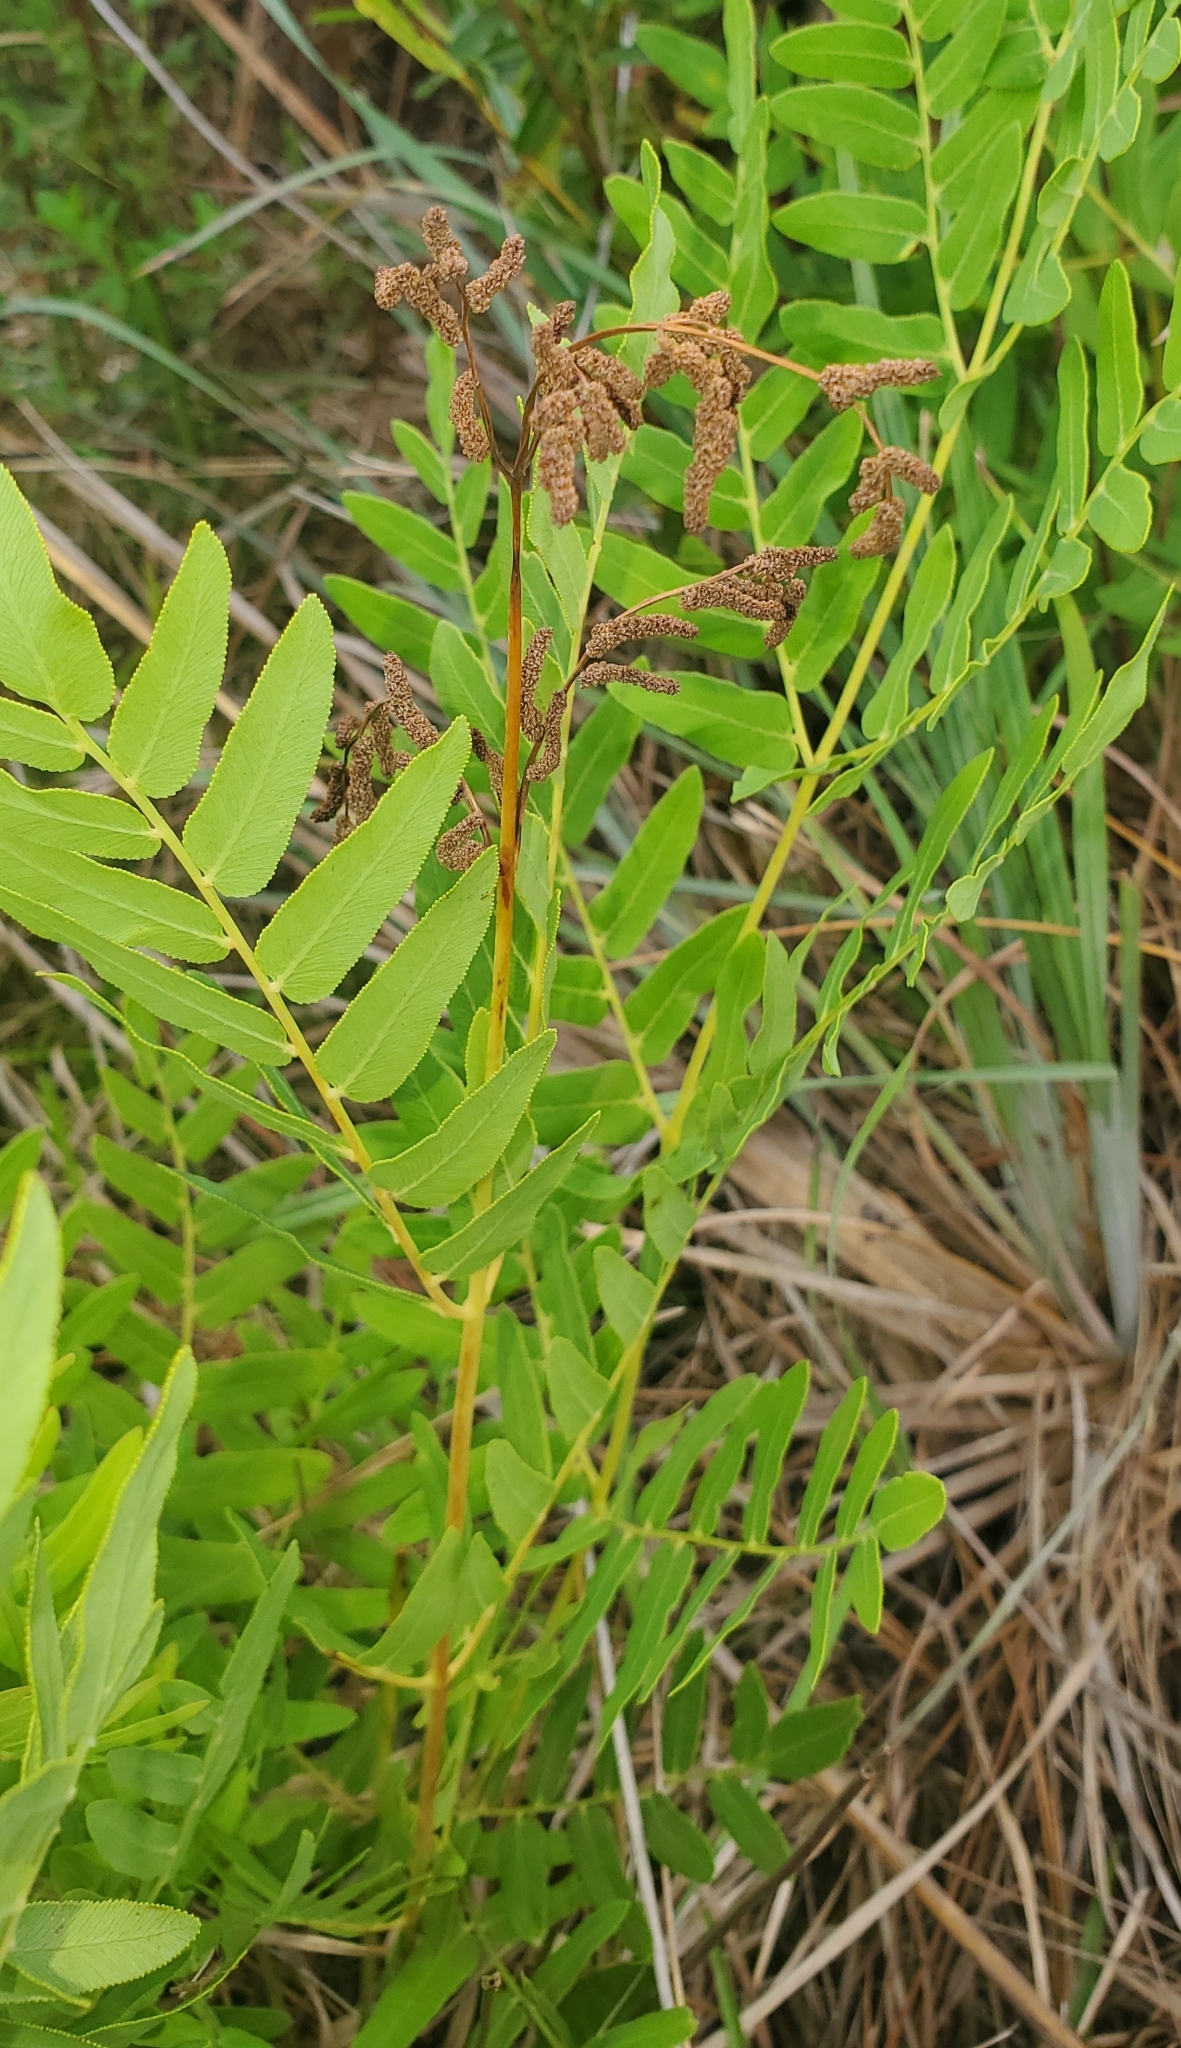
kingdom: Plantae
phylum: Tracheophyta
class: Polypodiopsida
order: Osmundales
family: Osmundaceae
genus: Osmunda
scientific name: Osmunda spectabilis
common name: American royal fern
